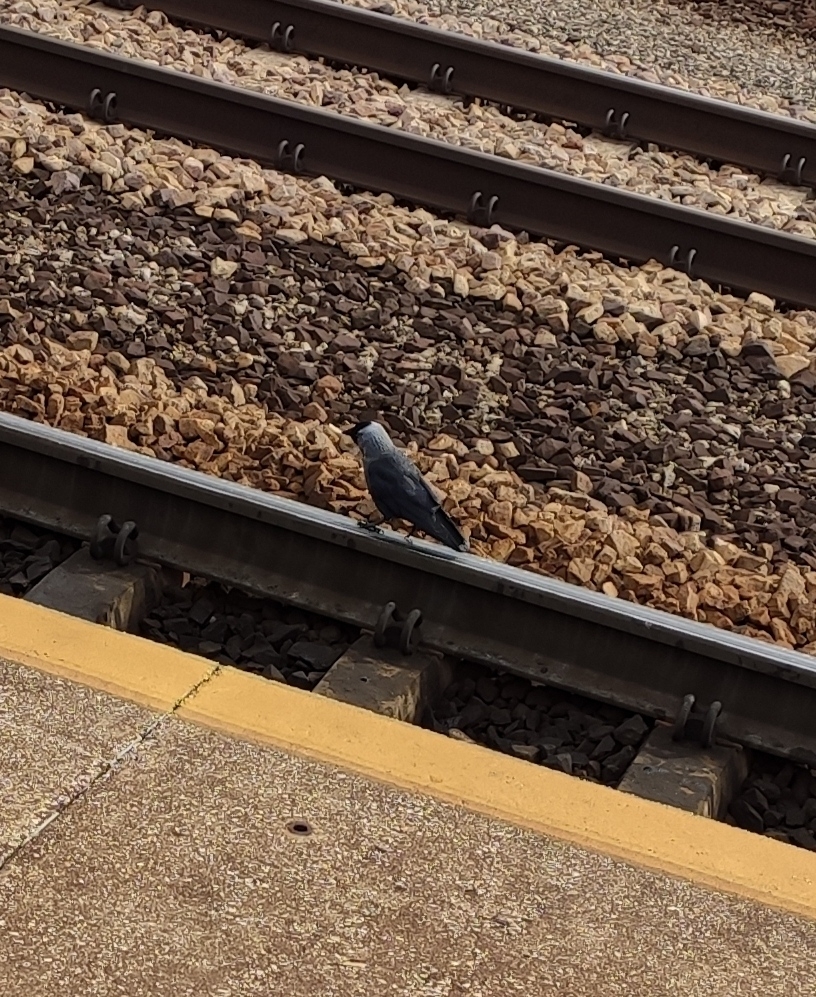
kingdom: Animalia
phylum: Chordata
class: Aves
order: Passeriformes
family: Corvidae
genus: Coloeus
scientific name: Coloeus monedula
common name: Western jackdaw
